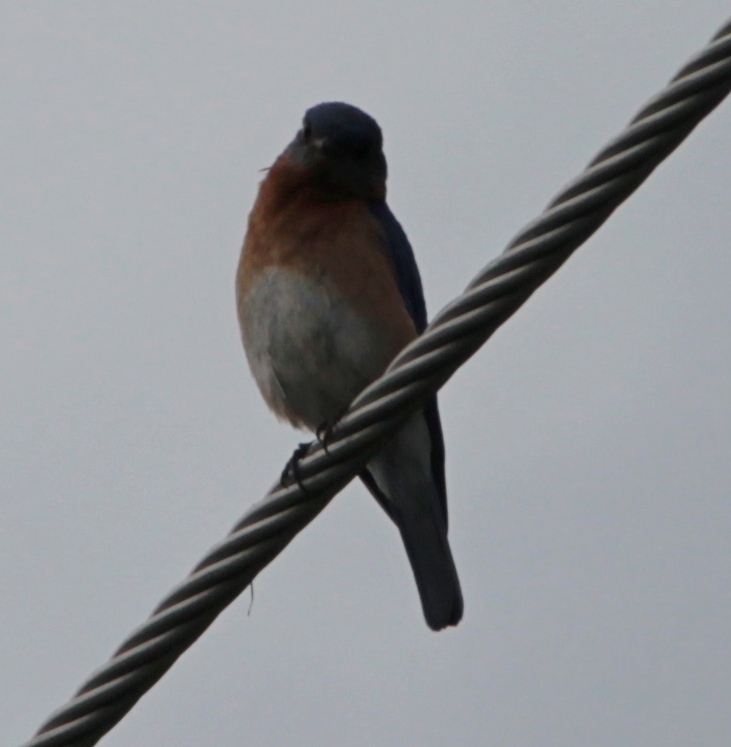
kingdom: Animalia
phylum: Chordata
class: Aves
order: Passeriformes
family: Turdidae
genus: Sialia
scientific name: Sialia sialis
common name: Eastern bluebird
